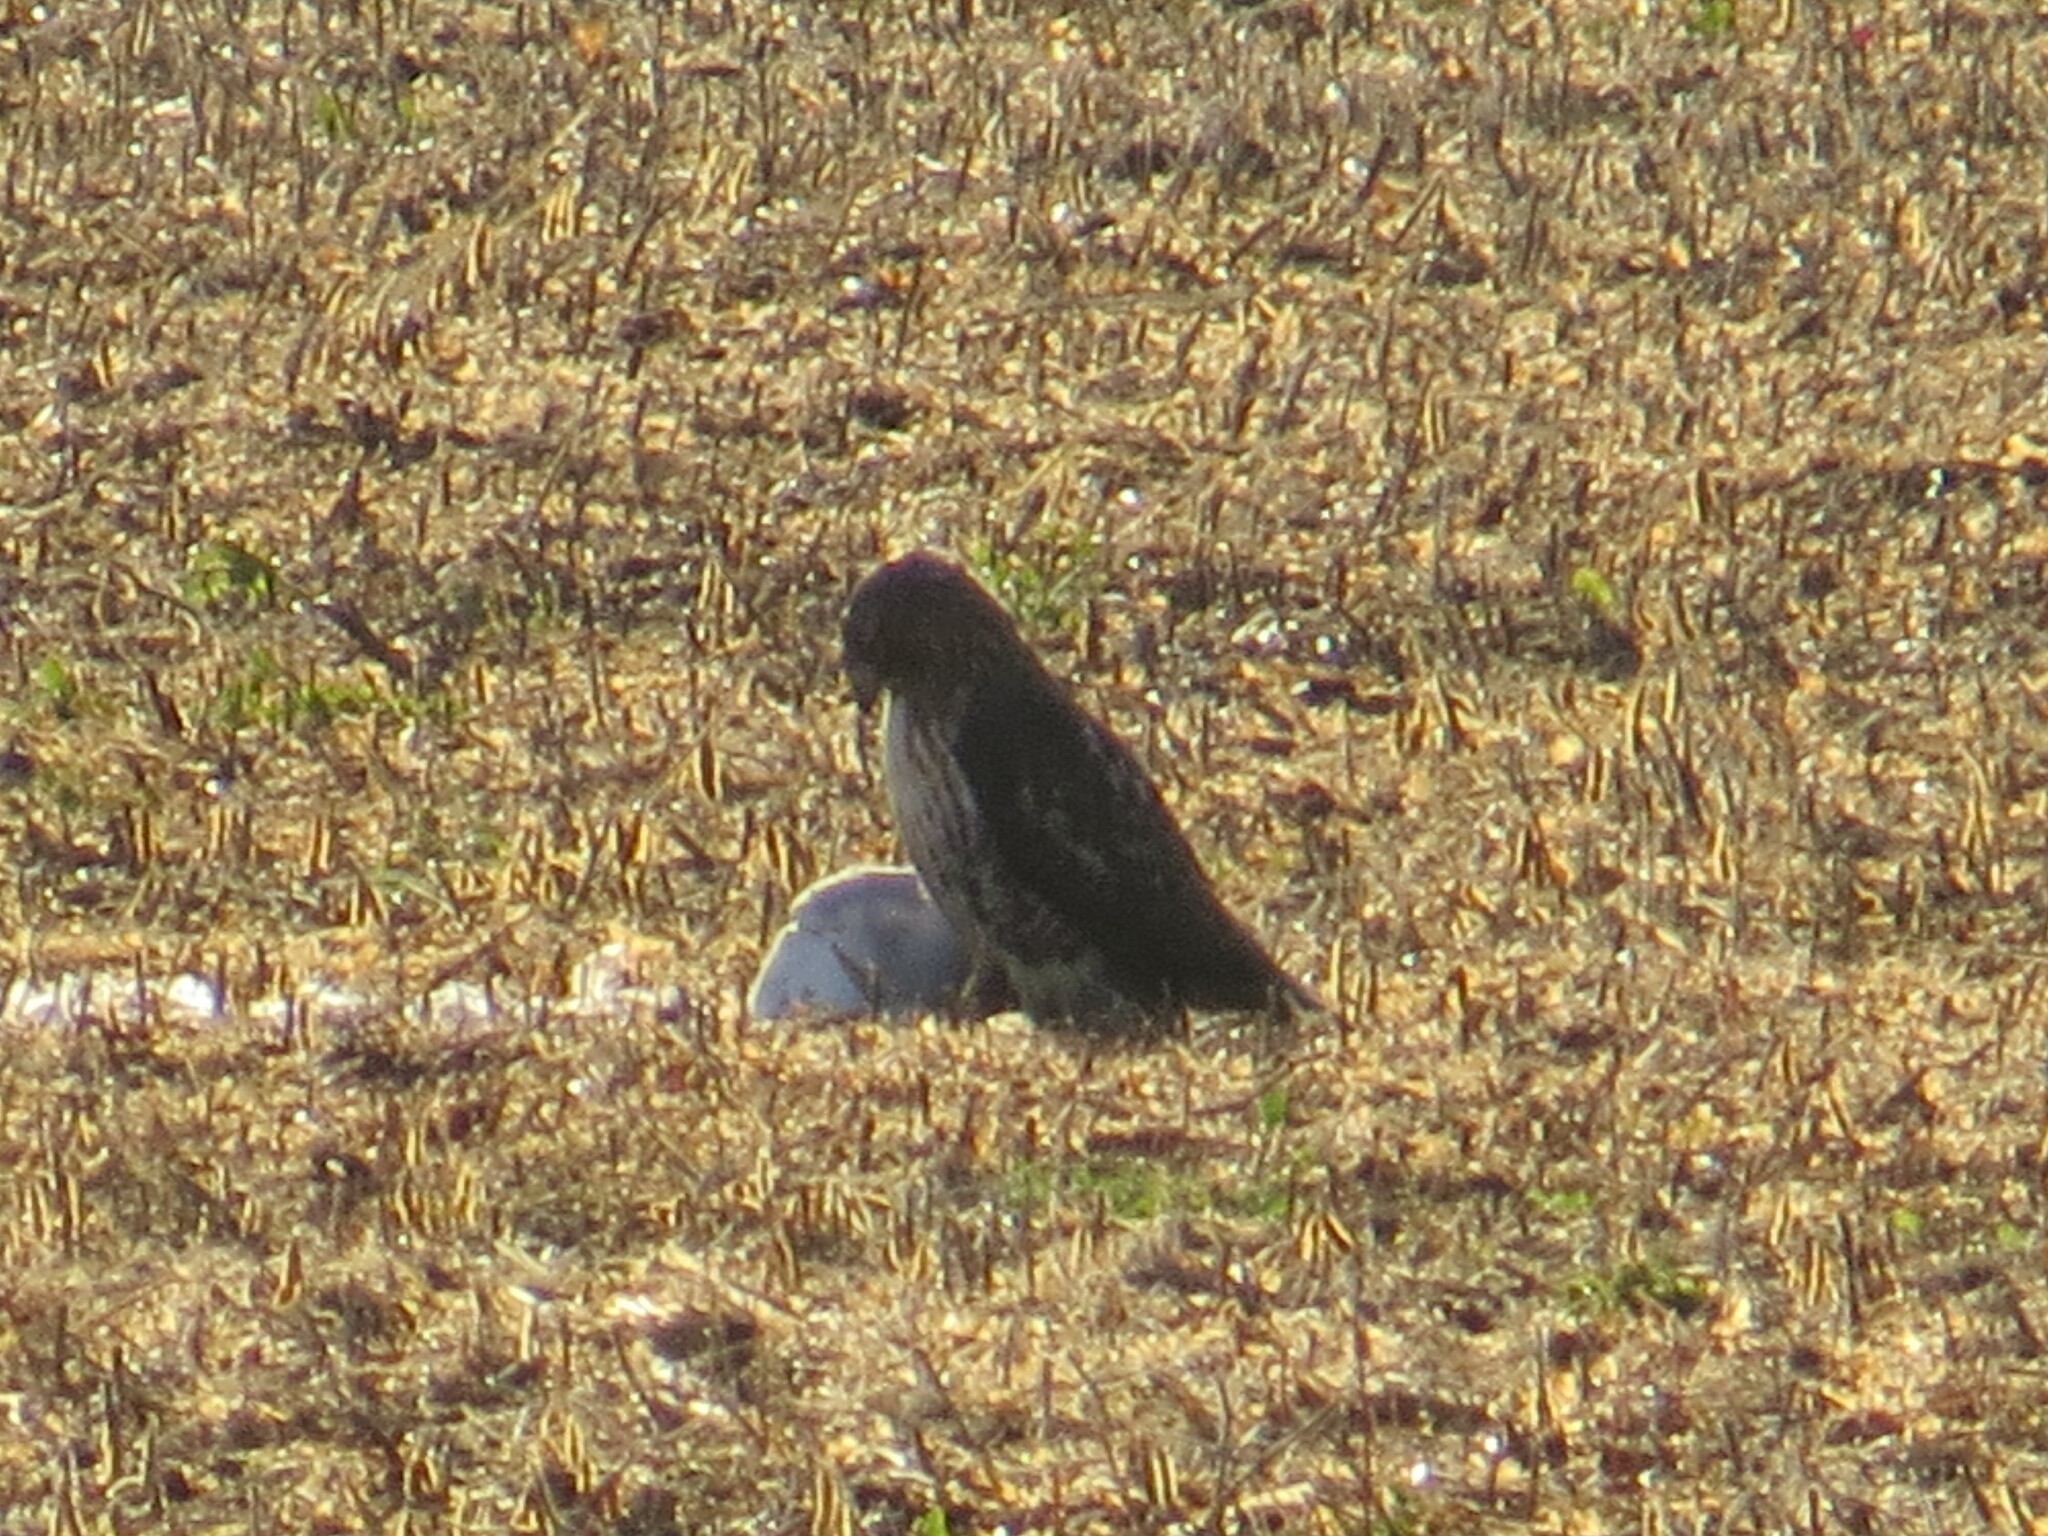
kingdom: Animalia
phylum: Chordata
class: Aves
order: Accipitriformes
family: Accipitridae
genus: Buteo
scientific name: Buteo jamaicensis
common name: Red-tailed hawk
